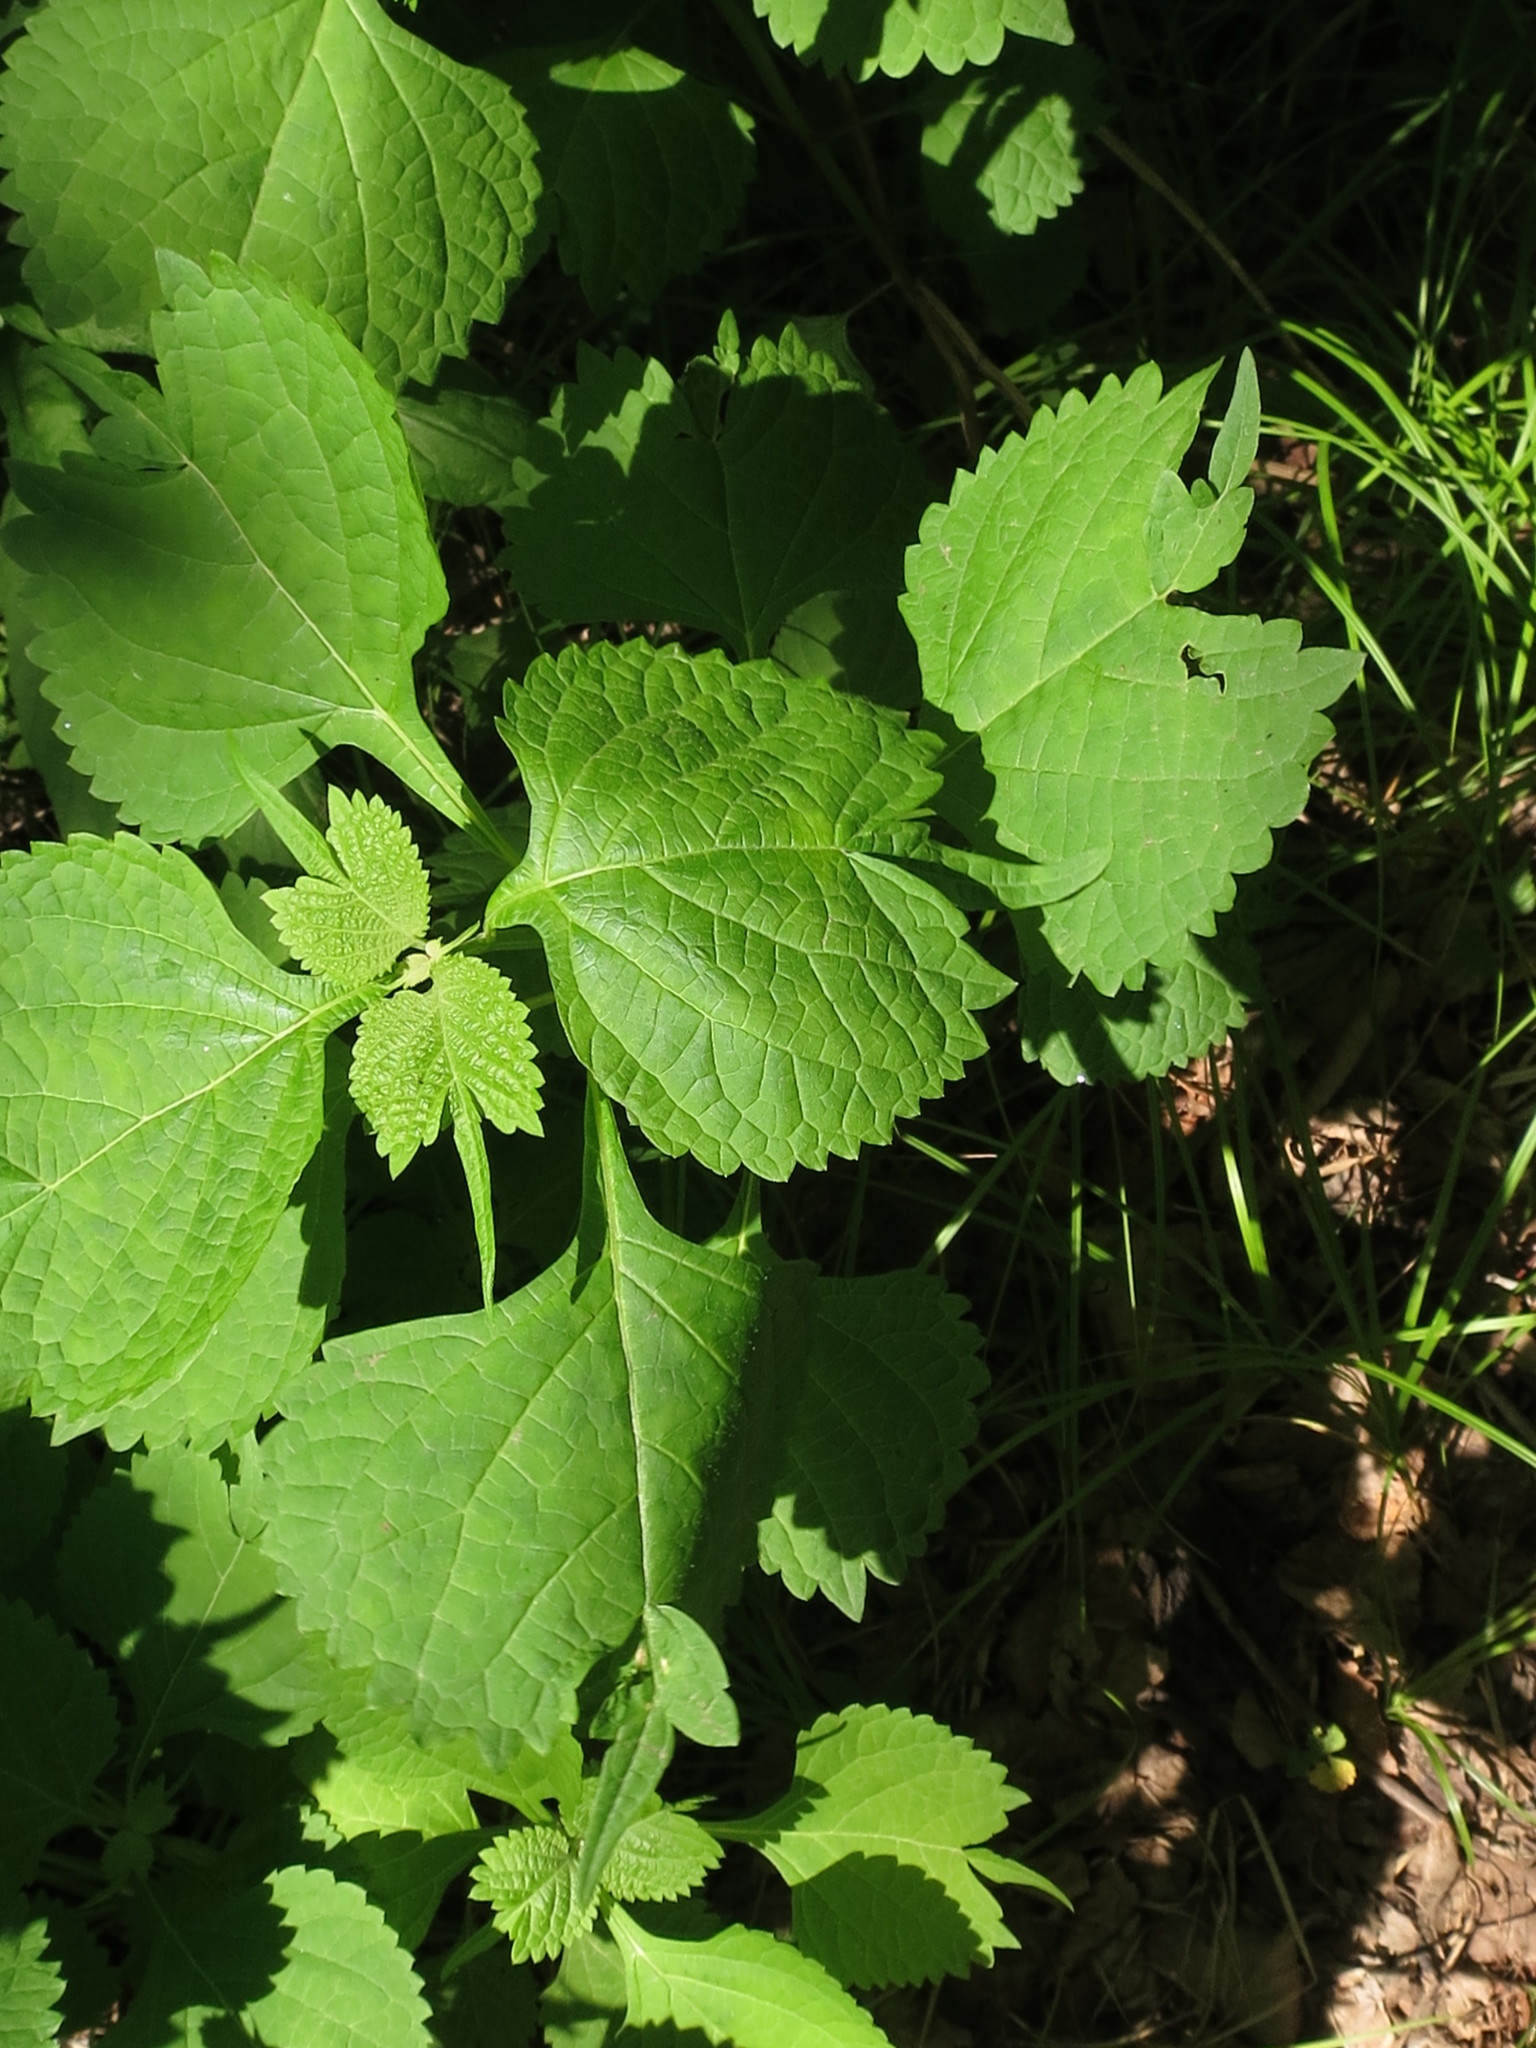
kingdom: Plantae
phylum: Tracheophyta
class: Magnoliopsida
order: Lamiales
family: Lamiaceae
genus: Isodon
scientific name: Isodon excisus
